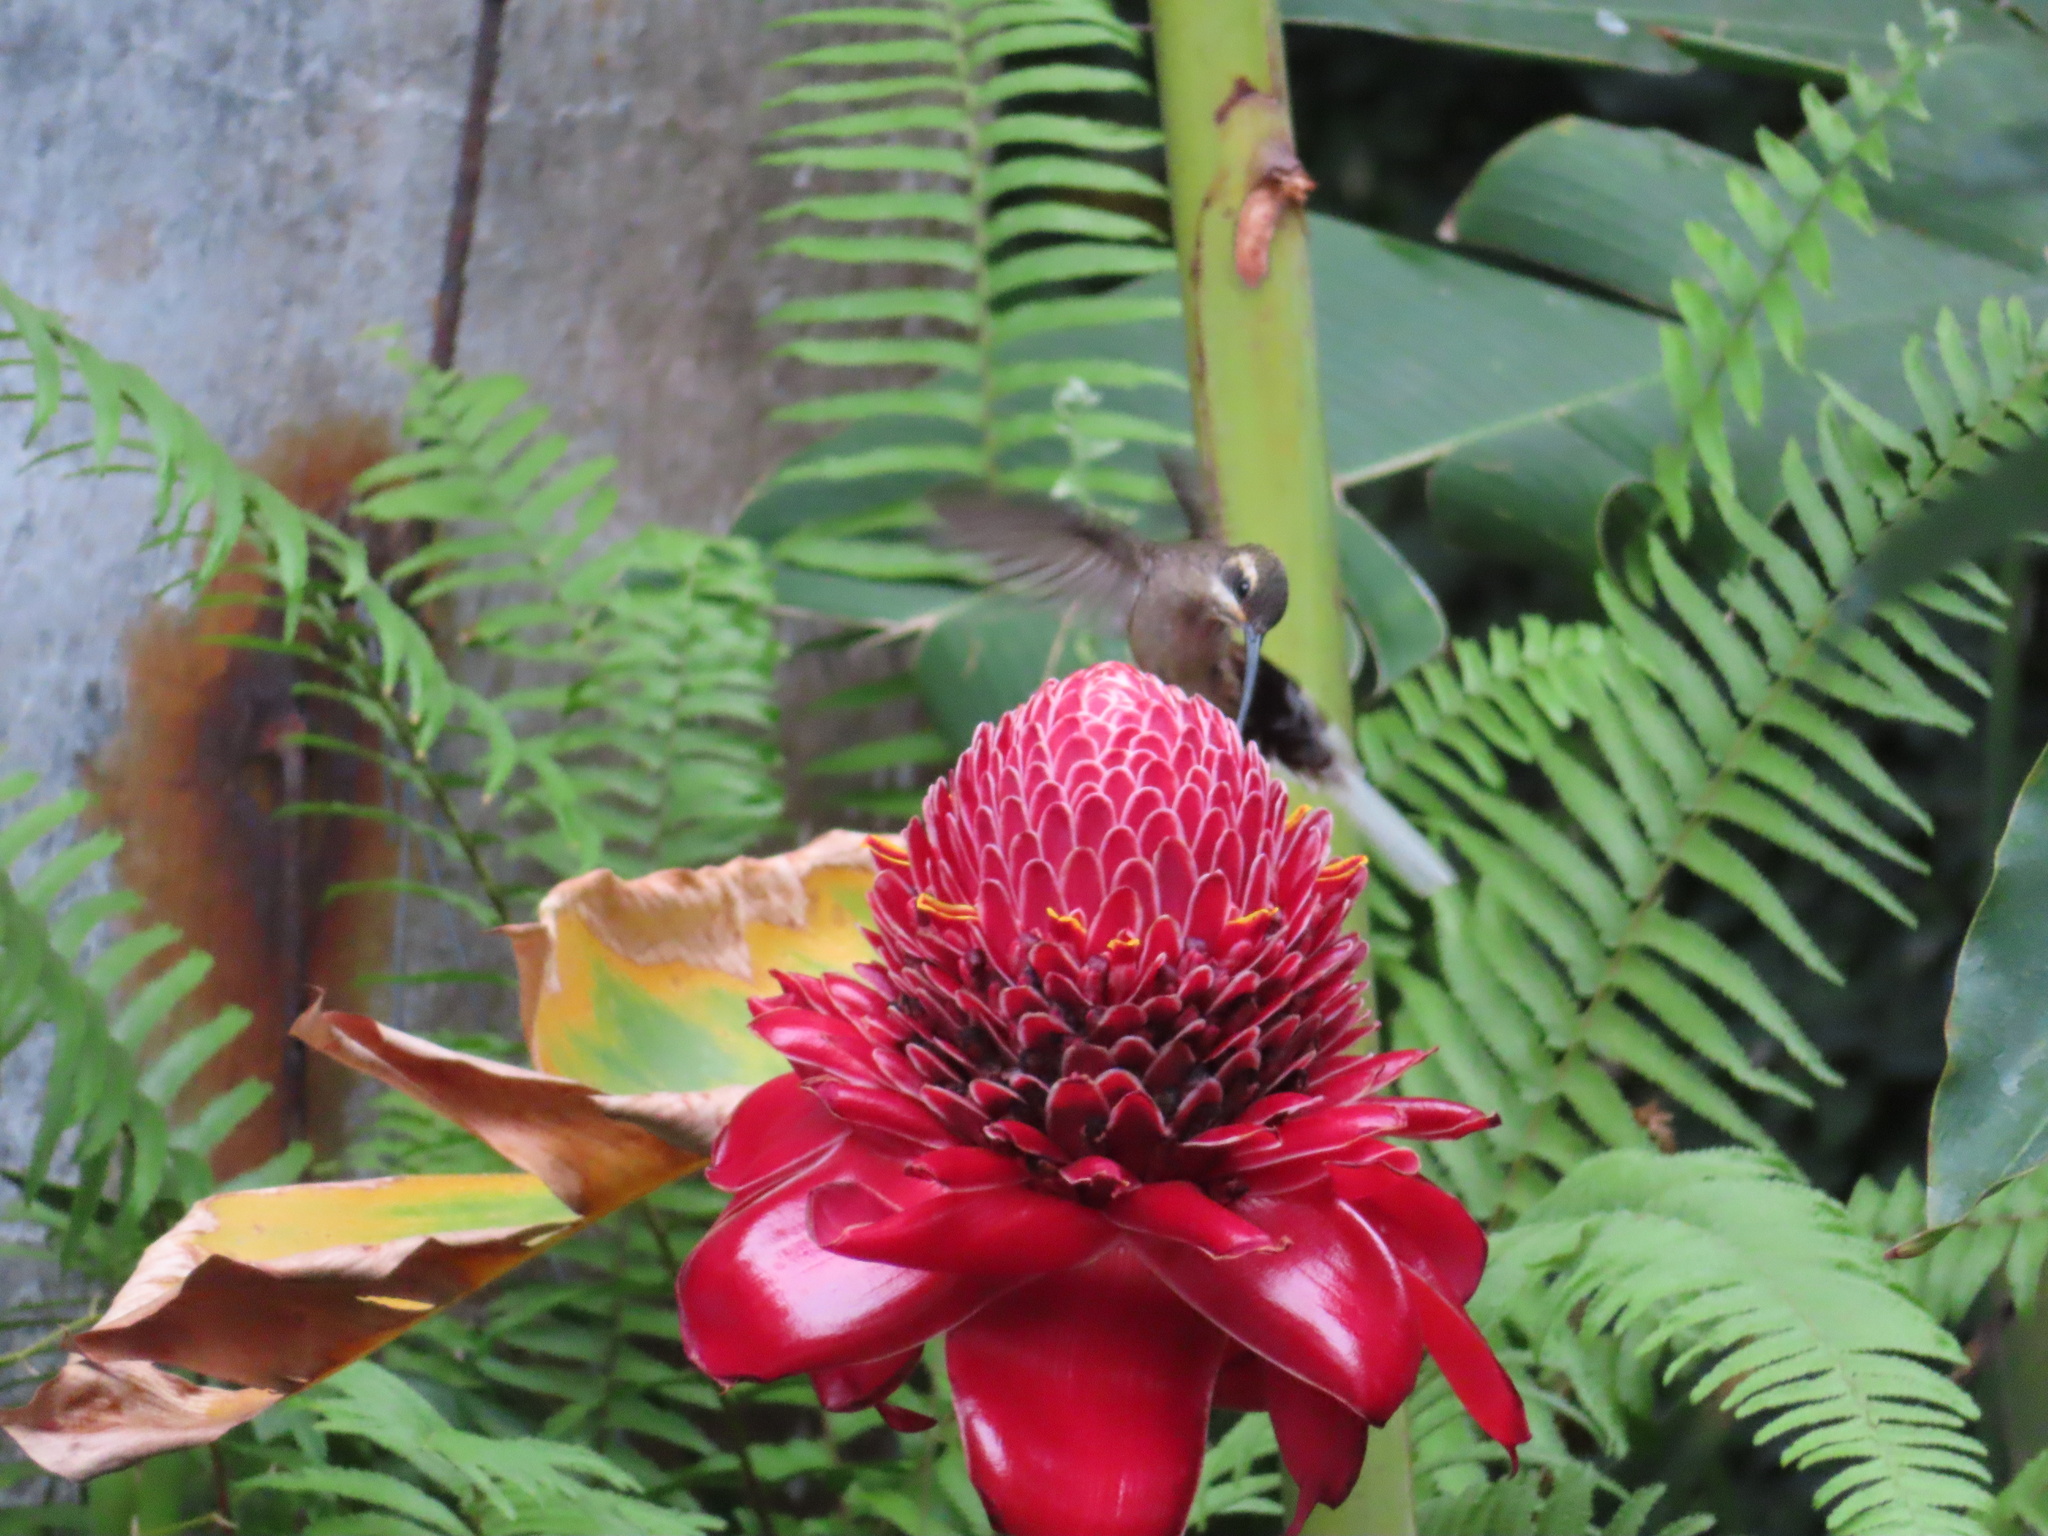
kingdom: Animalia
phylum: Chordata
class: Aves
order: Apodiformes
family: Trochilidae
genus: Phaethornis
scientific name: Phaethornis mexicanus
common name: Mexican hermit
